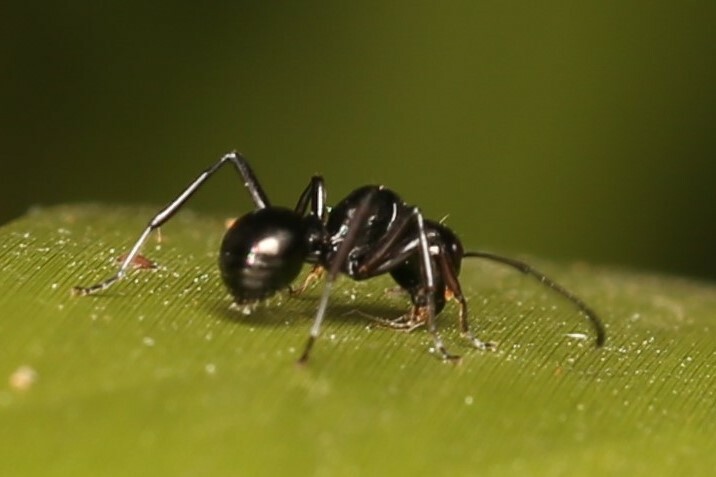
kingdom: Animalia
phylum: Arthropoda
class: Insecta
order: Hymenoptera
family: Formicidae
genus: Polyrhachis
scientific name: Polyrhachis australis
